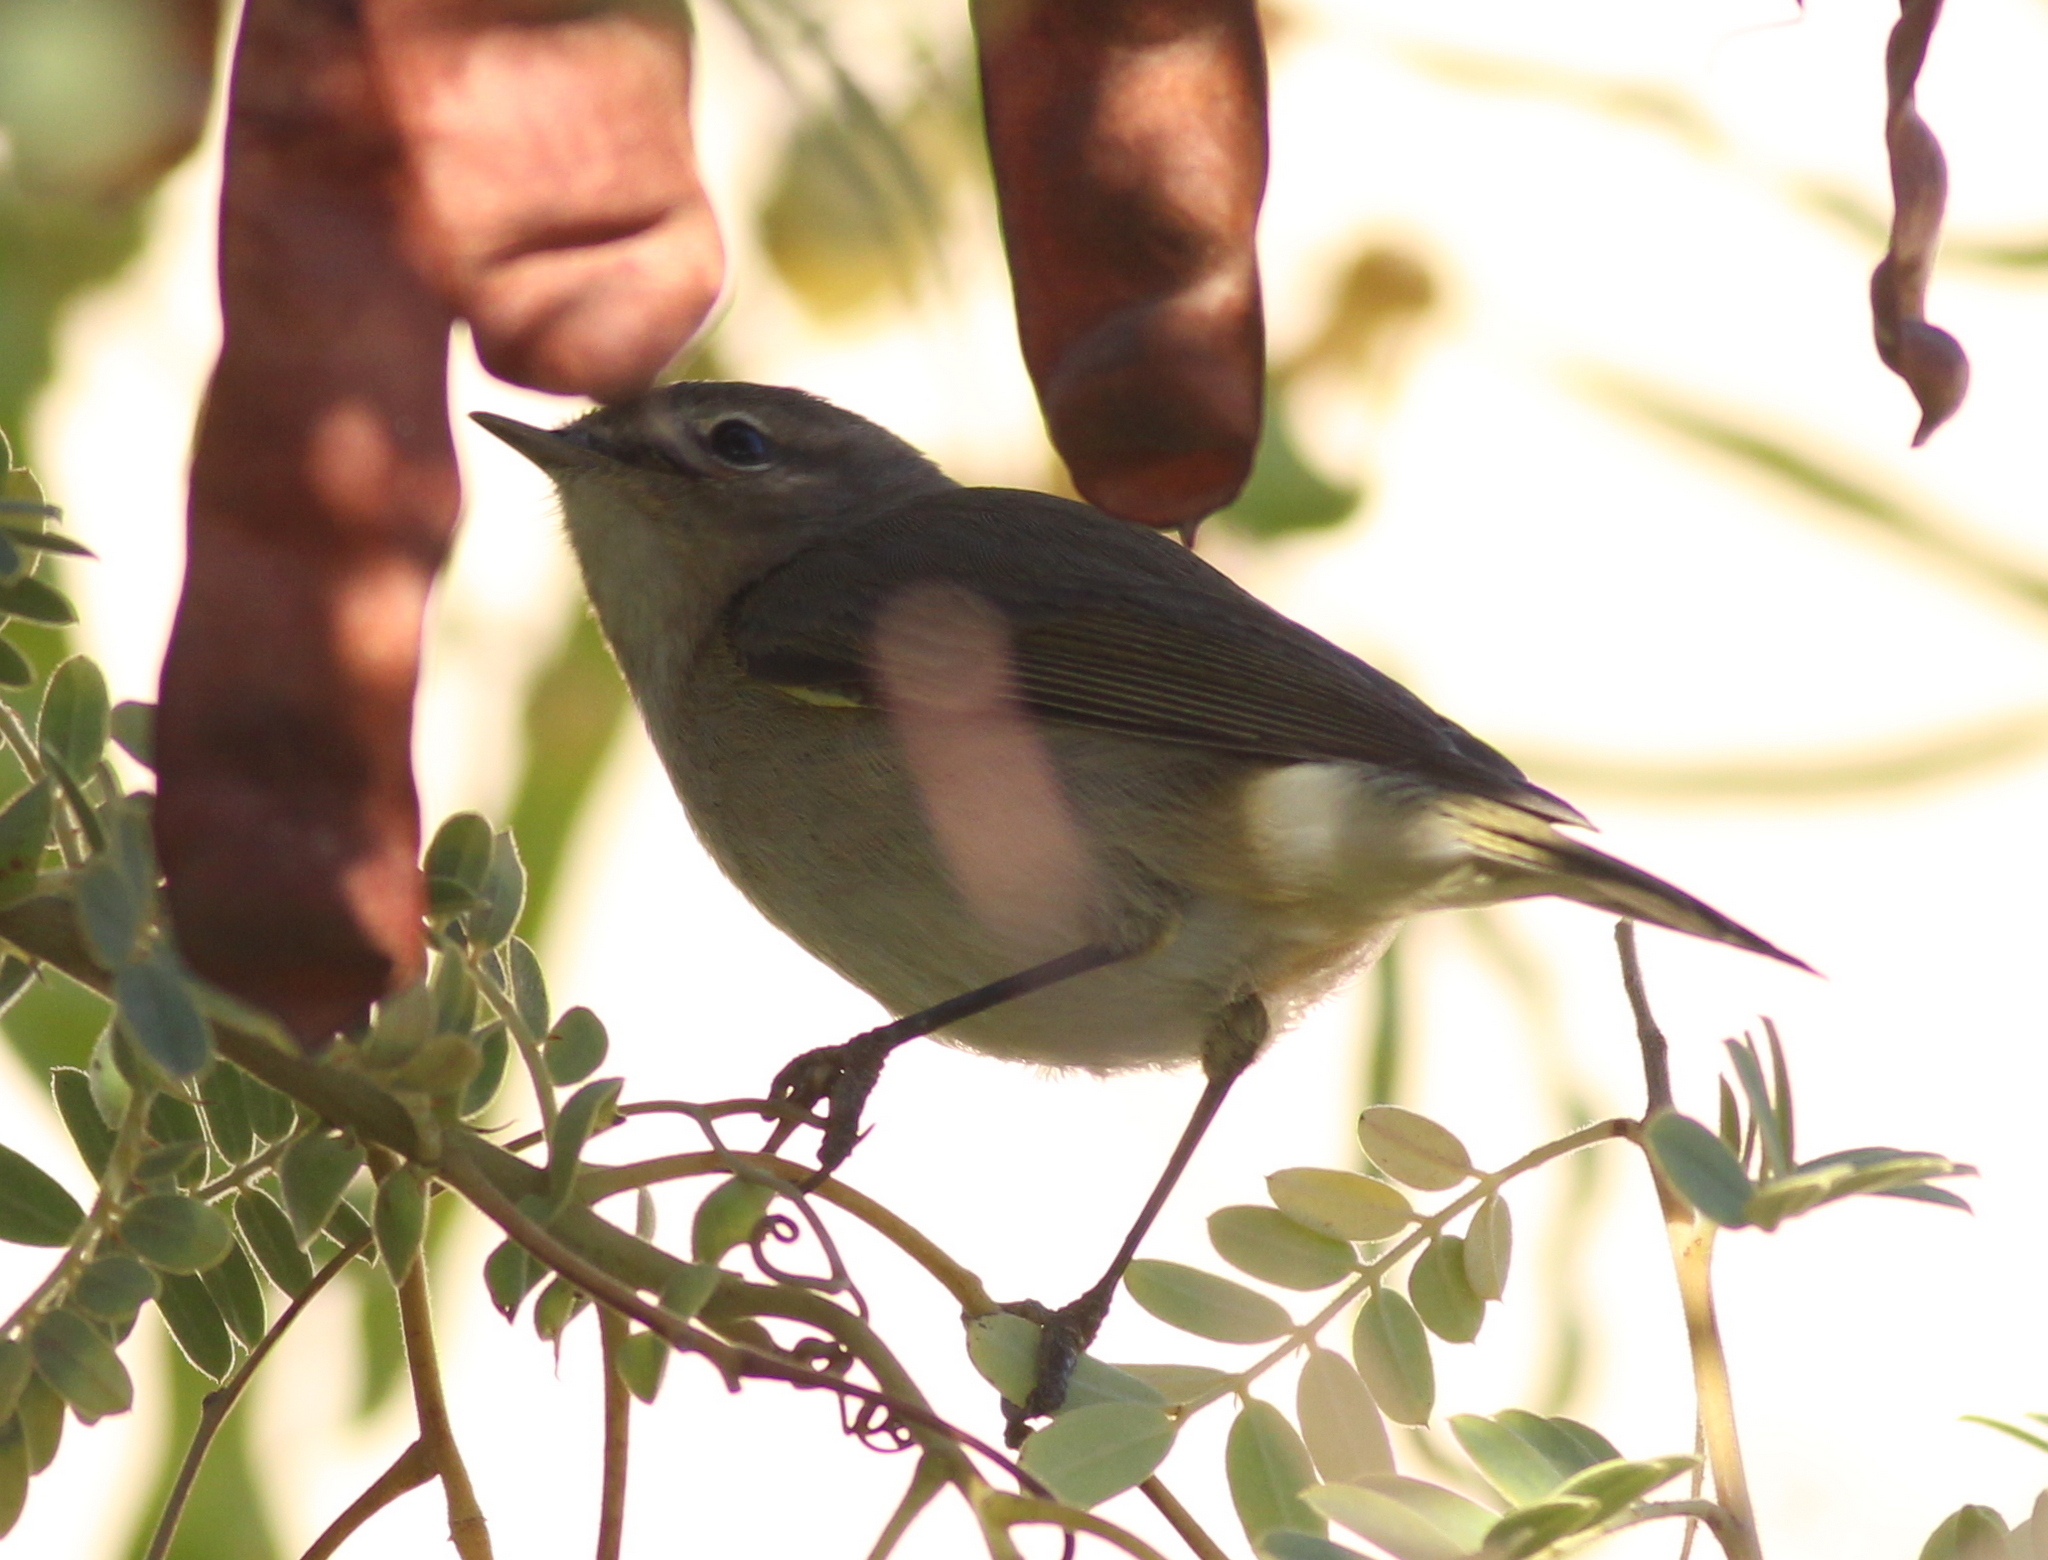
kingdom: Animalia
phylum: Chordata
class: Aves
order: Passeriformes
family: Phylloscopidae
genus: Phylloscopus
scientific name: Phylloscopus collybita
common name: Common chiffchaff
